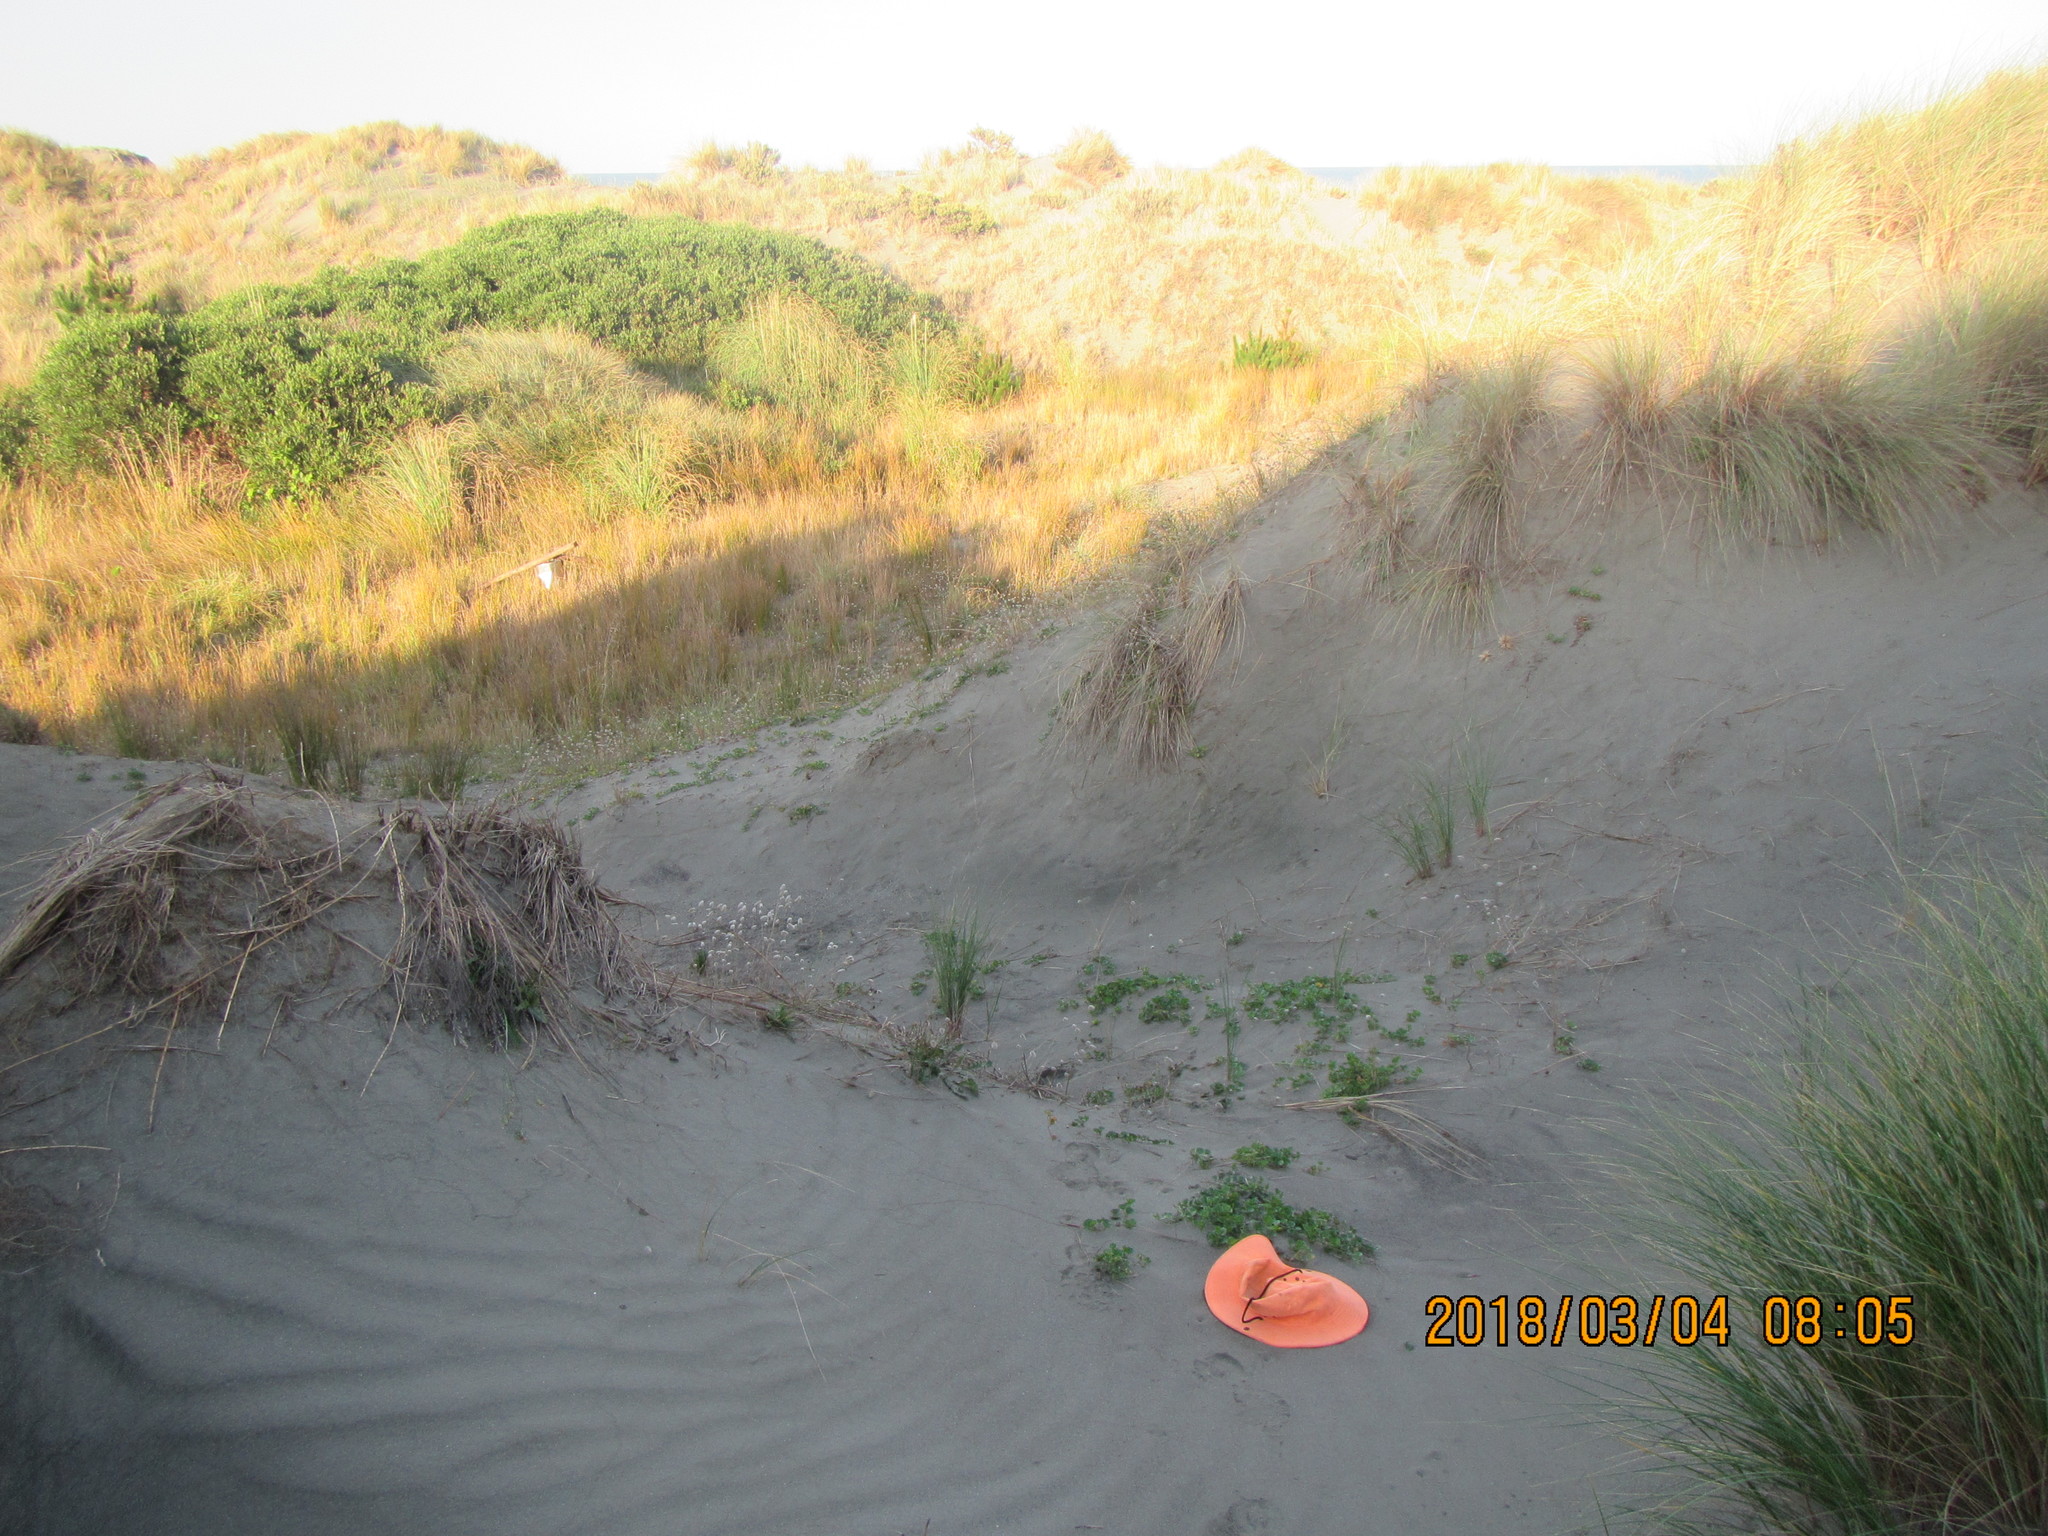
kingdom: Plantae
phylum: Tracheophyta
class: Magnoliopsida
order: Solanales
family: Convolvulaceae
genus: Calystegia
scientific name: Calystegia soldanella
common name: Sea bindweed
